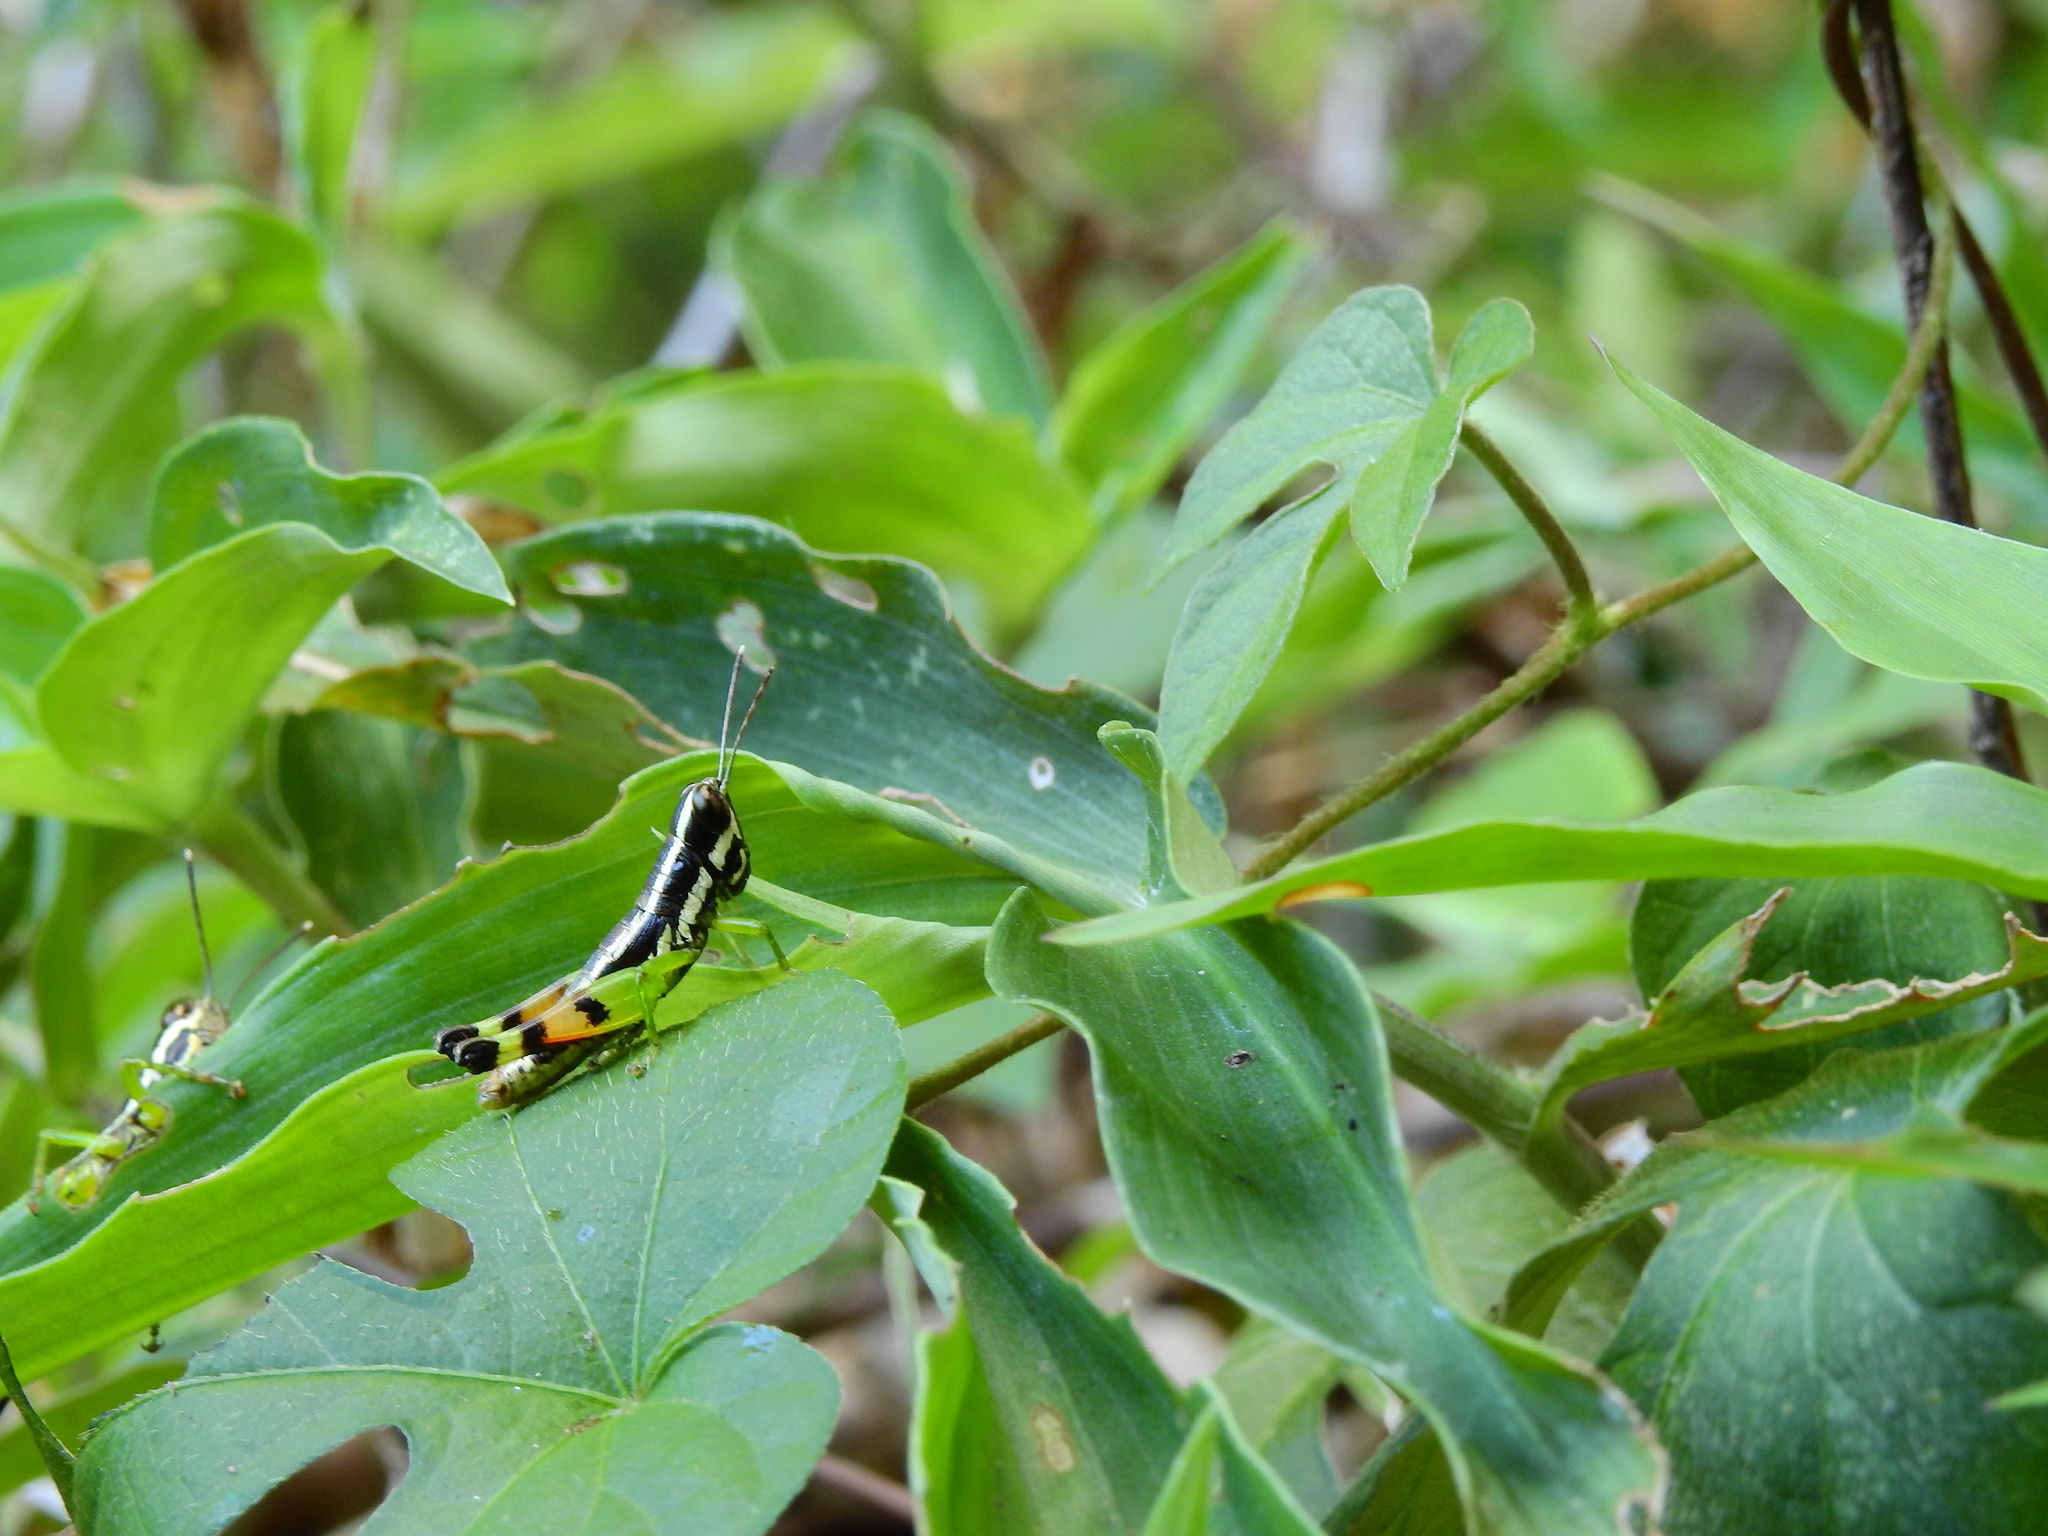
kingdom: Animalia
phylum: Arthropoda
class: Insecta
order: Orthoptera
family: Acrididae
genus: Chitaura
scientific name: Chitaura indica
